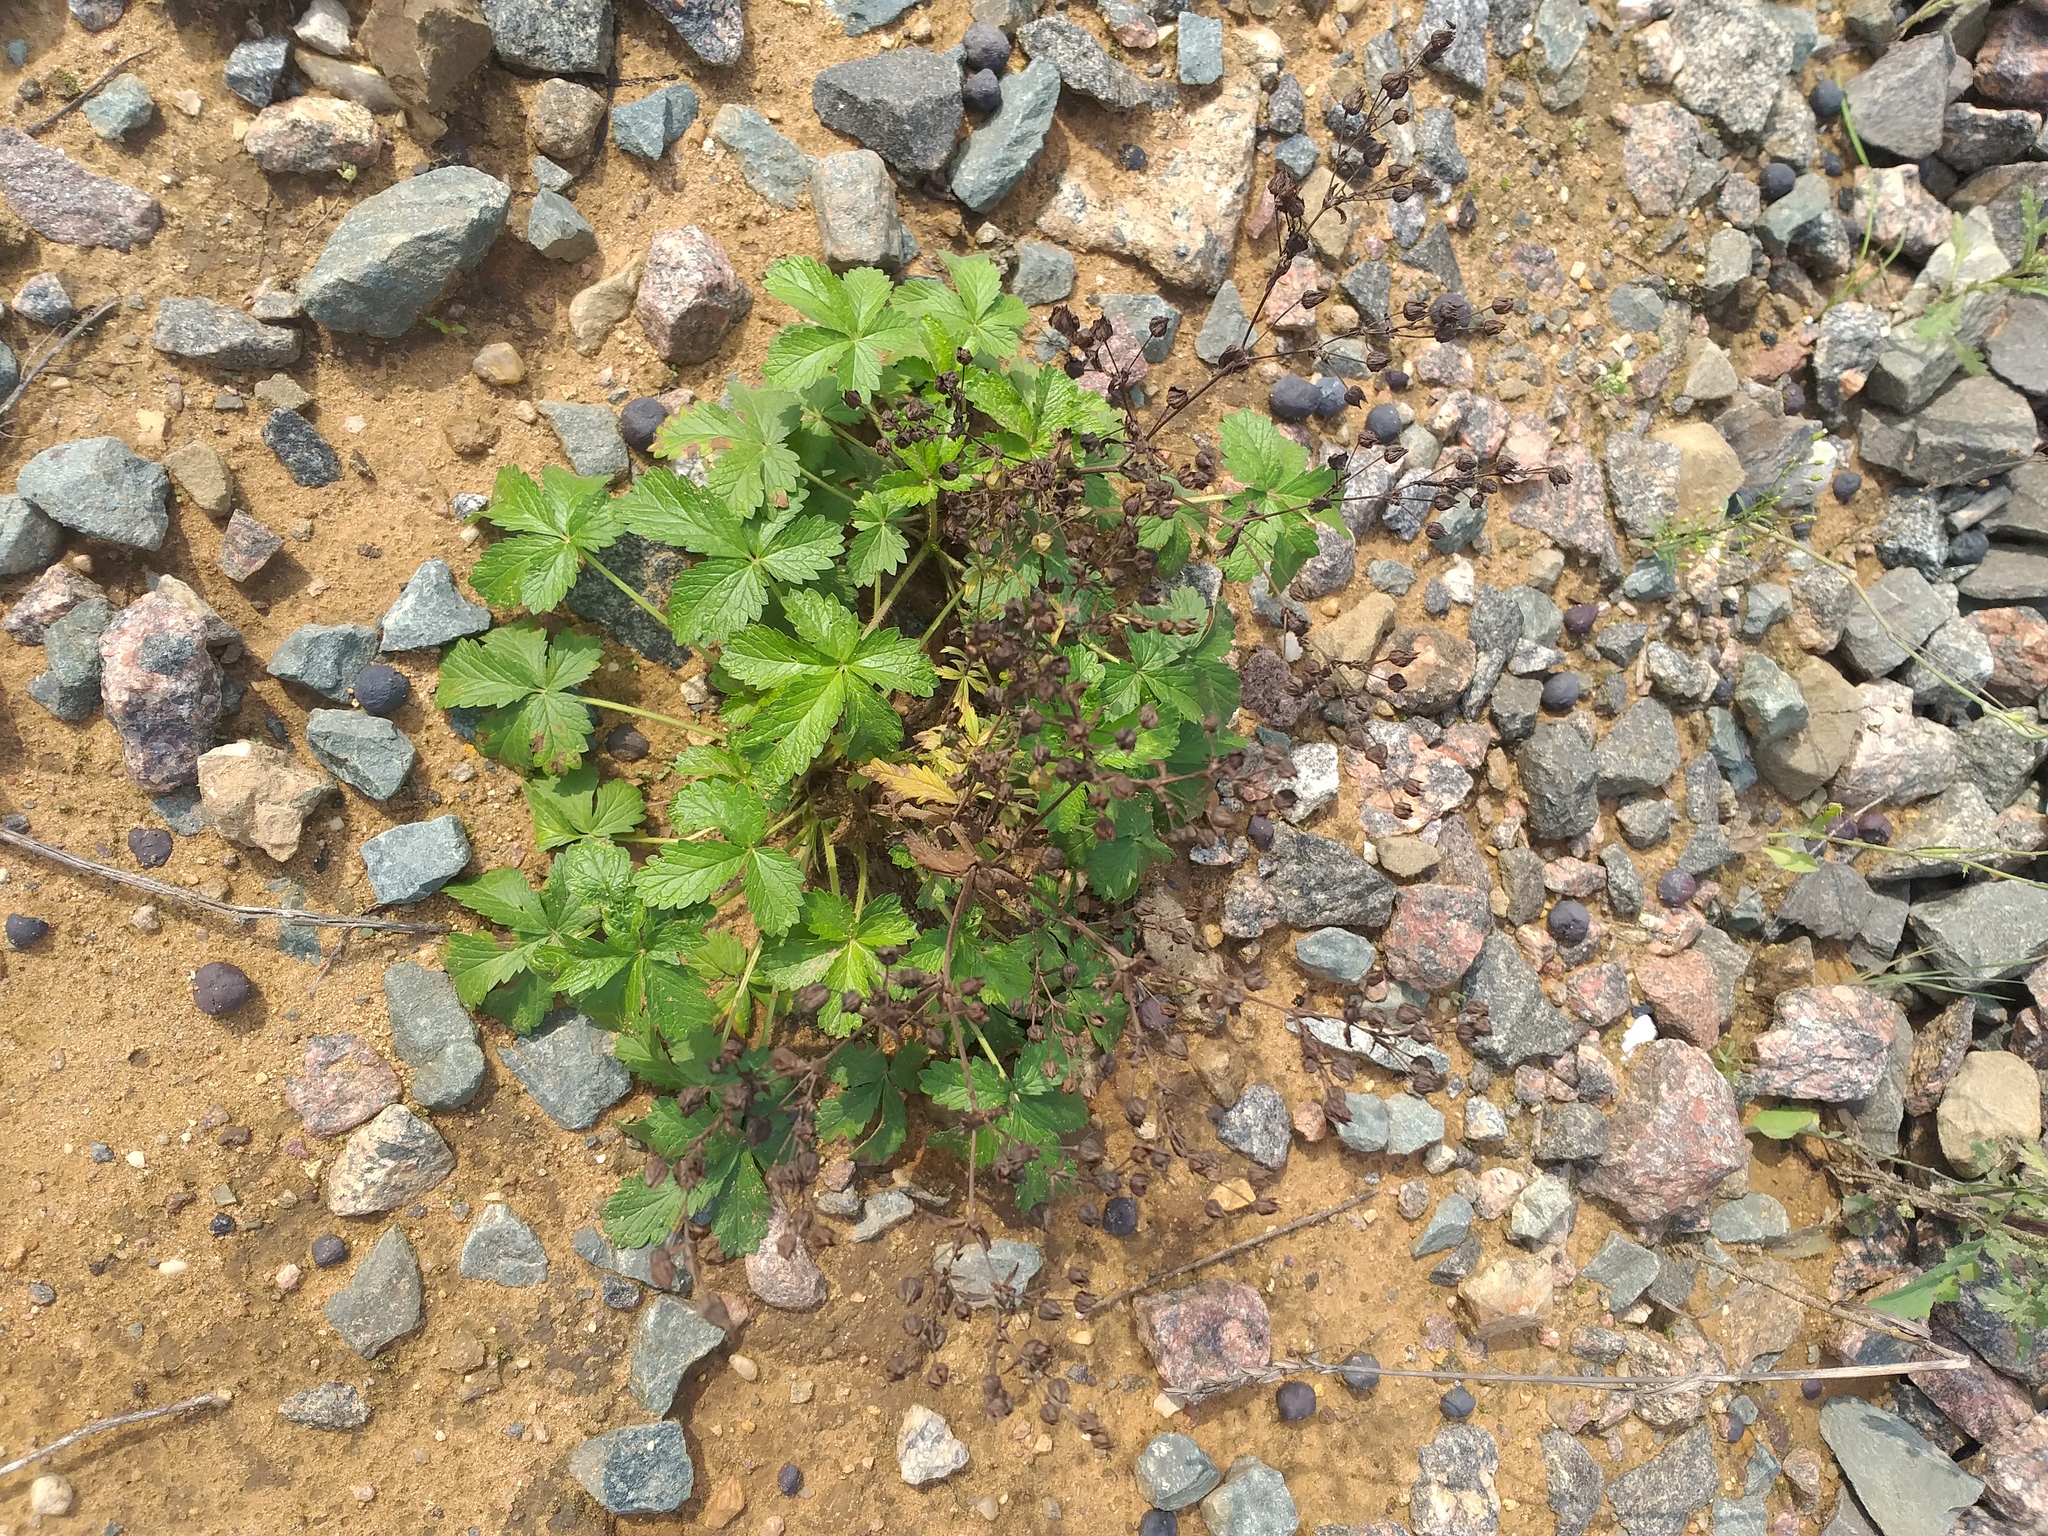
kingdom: Plantae
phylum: Tracheophyta
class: Magnoliopsida
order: Rosales
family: Rosaceae
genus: Potentilla
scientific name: Potentilla intermedia
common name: Downy cinquefoil
